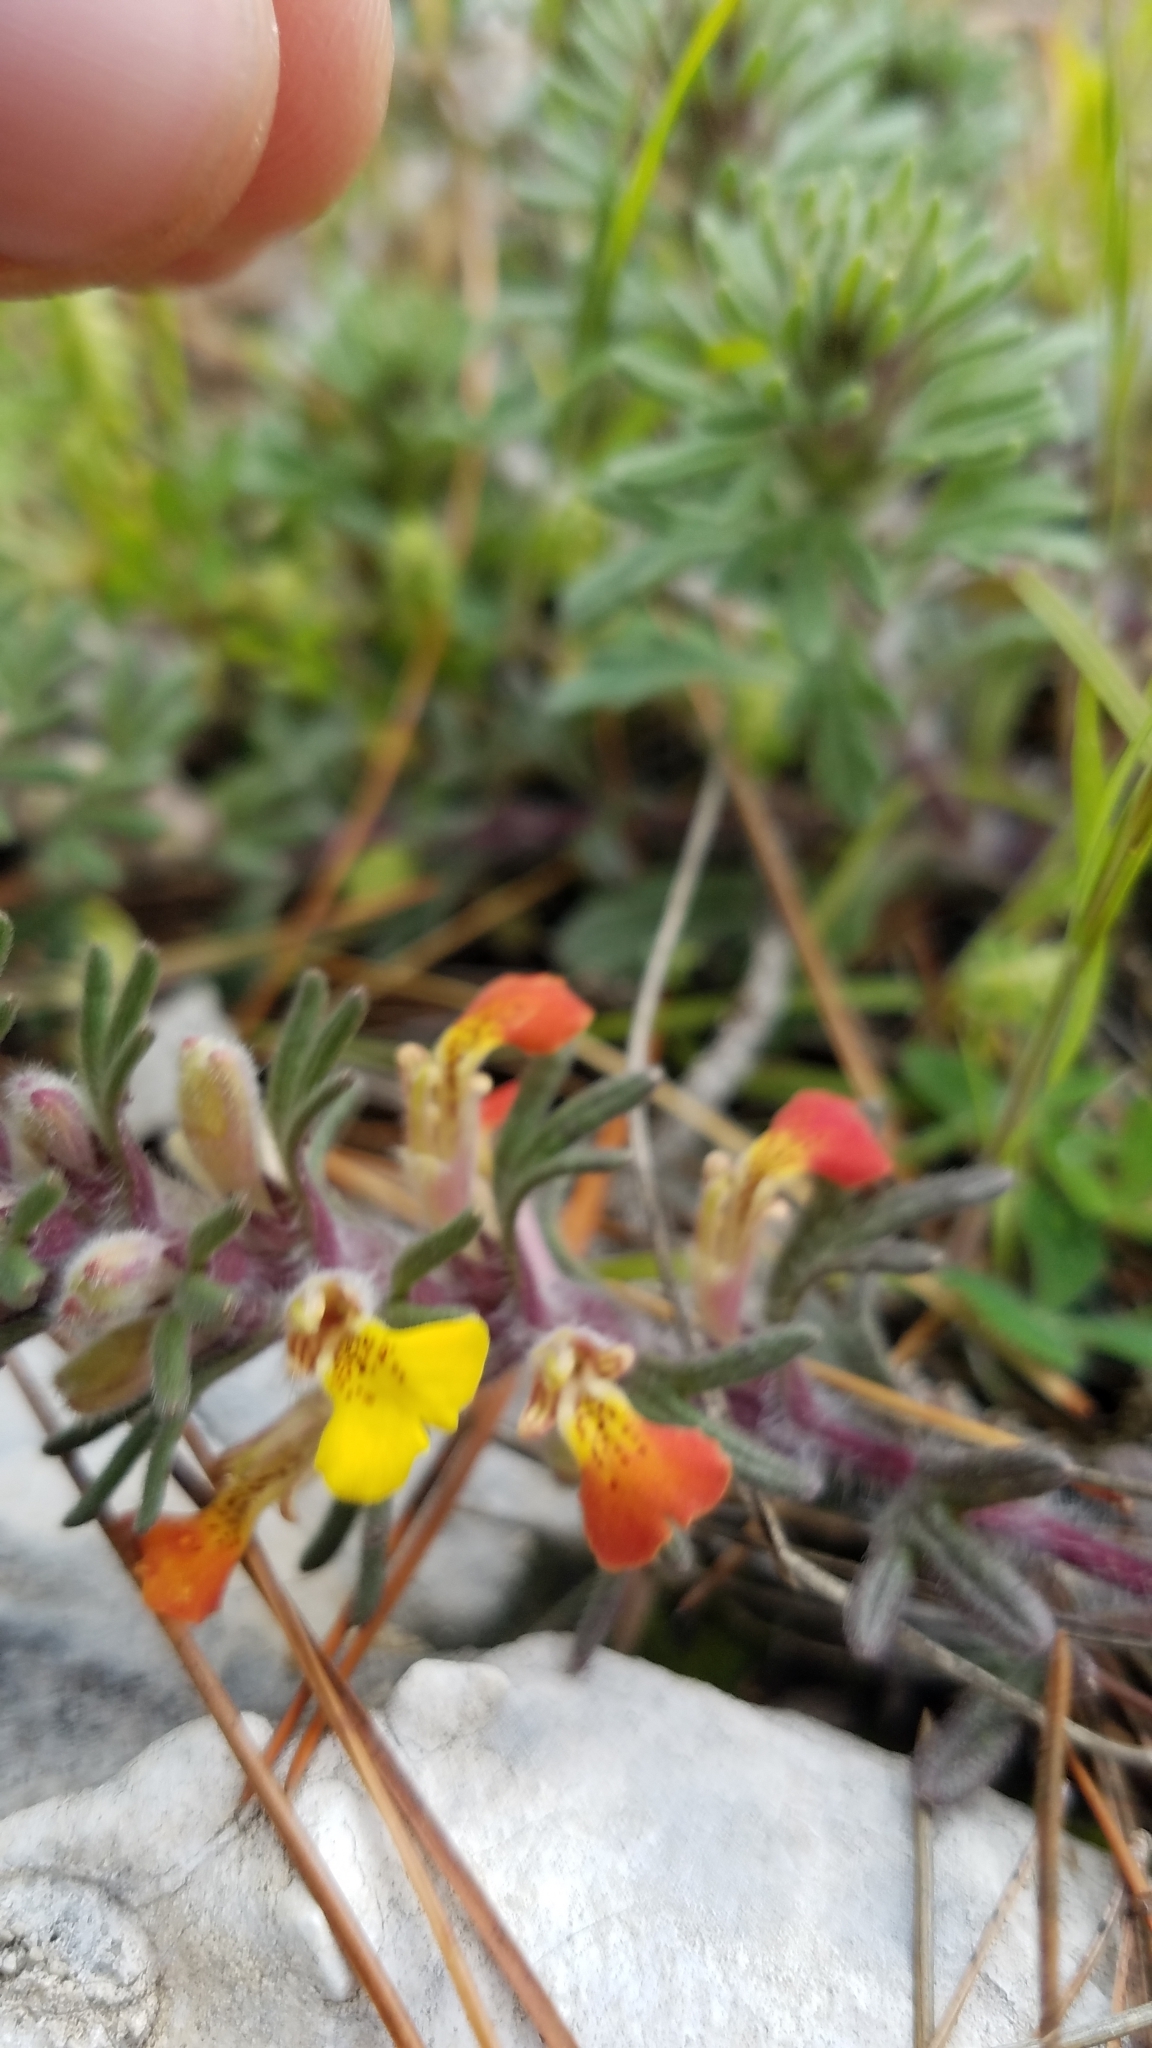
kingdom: Plantae
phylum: Tracheophyta
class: Magnoliopsida
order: Lamiales
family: Lamiaceae
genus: Ajuga
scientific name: Ajuga chamaepitys
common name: Ground-pine
